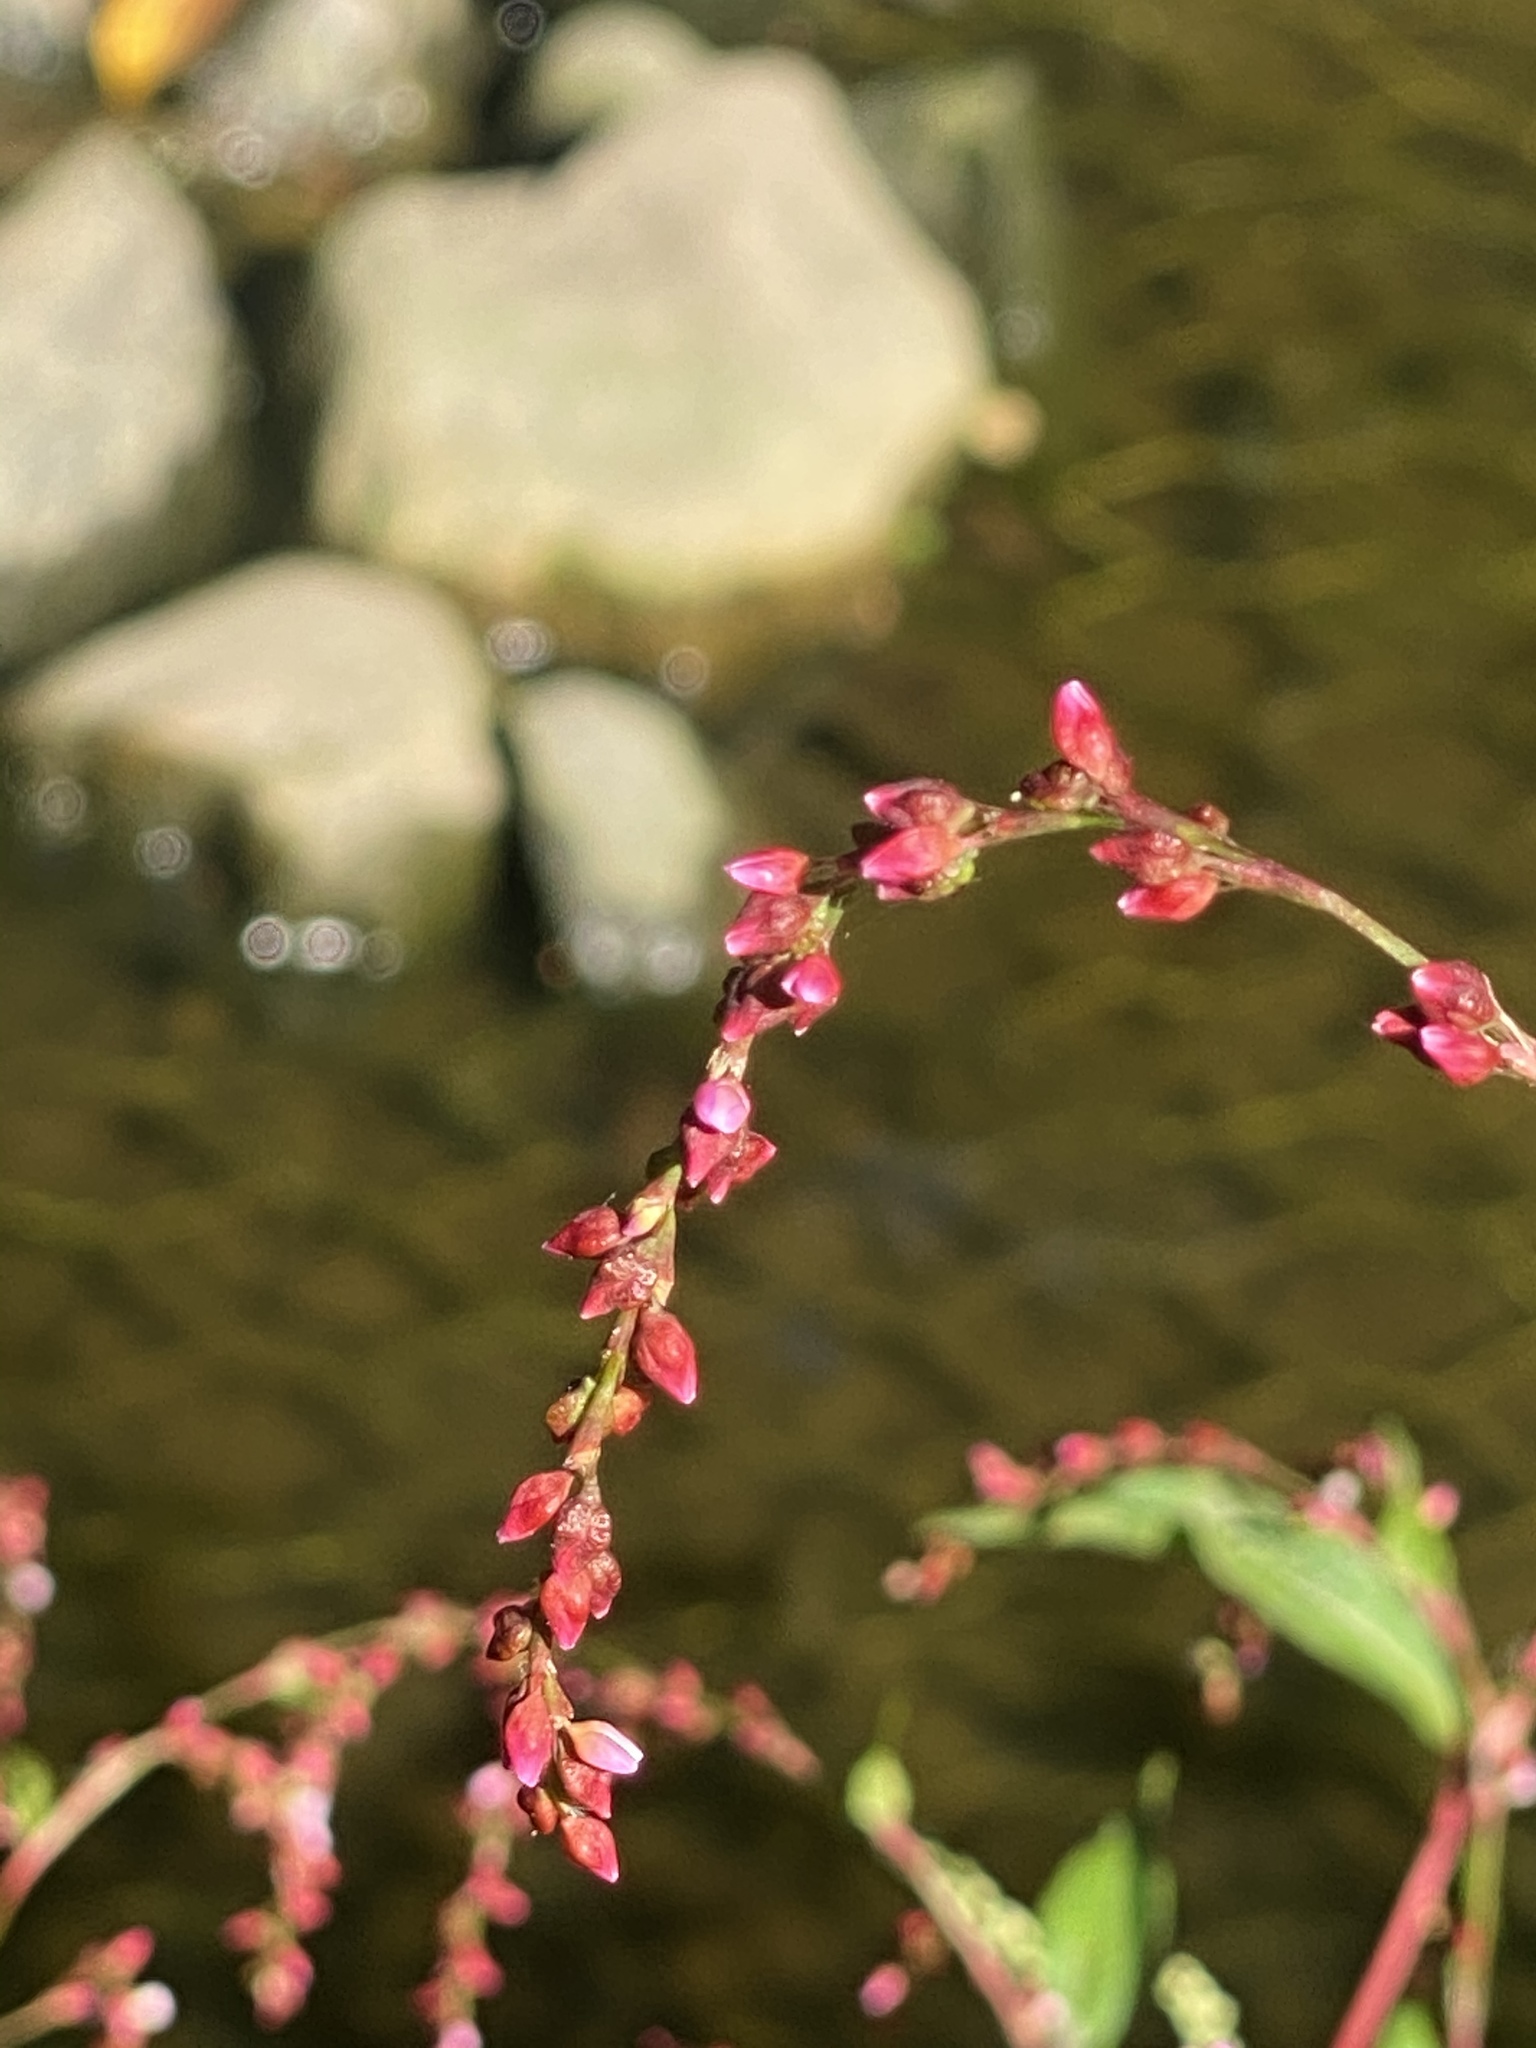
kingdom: Plantae
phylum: Tracheophyta
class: Magnoliopsida
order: Caryophyllales
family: Polygonaceae
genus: Persicaria
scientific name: Persicaria hydropiper
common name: Water-pepper
